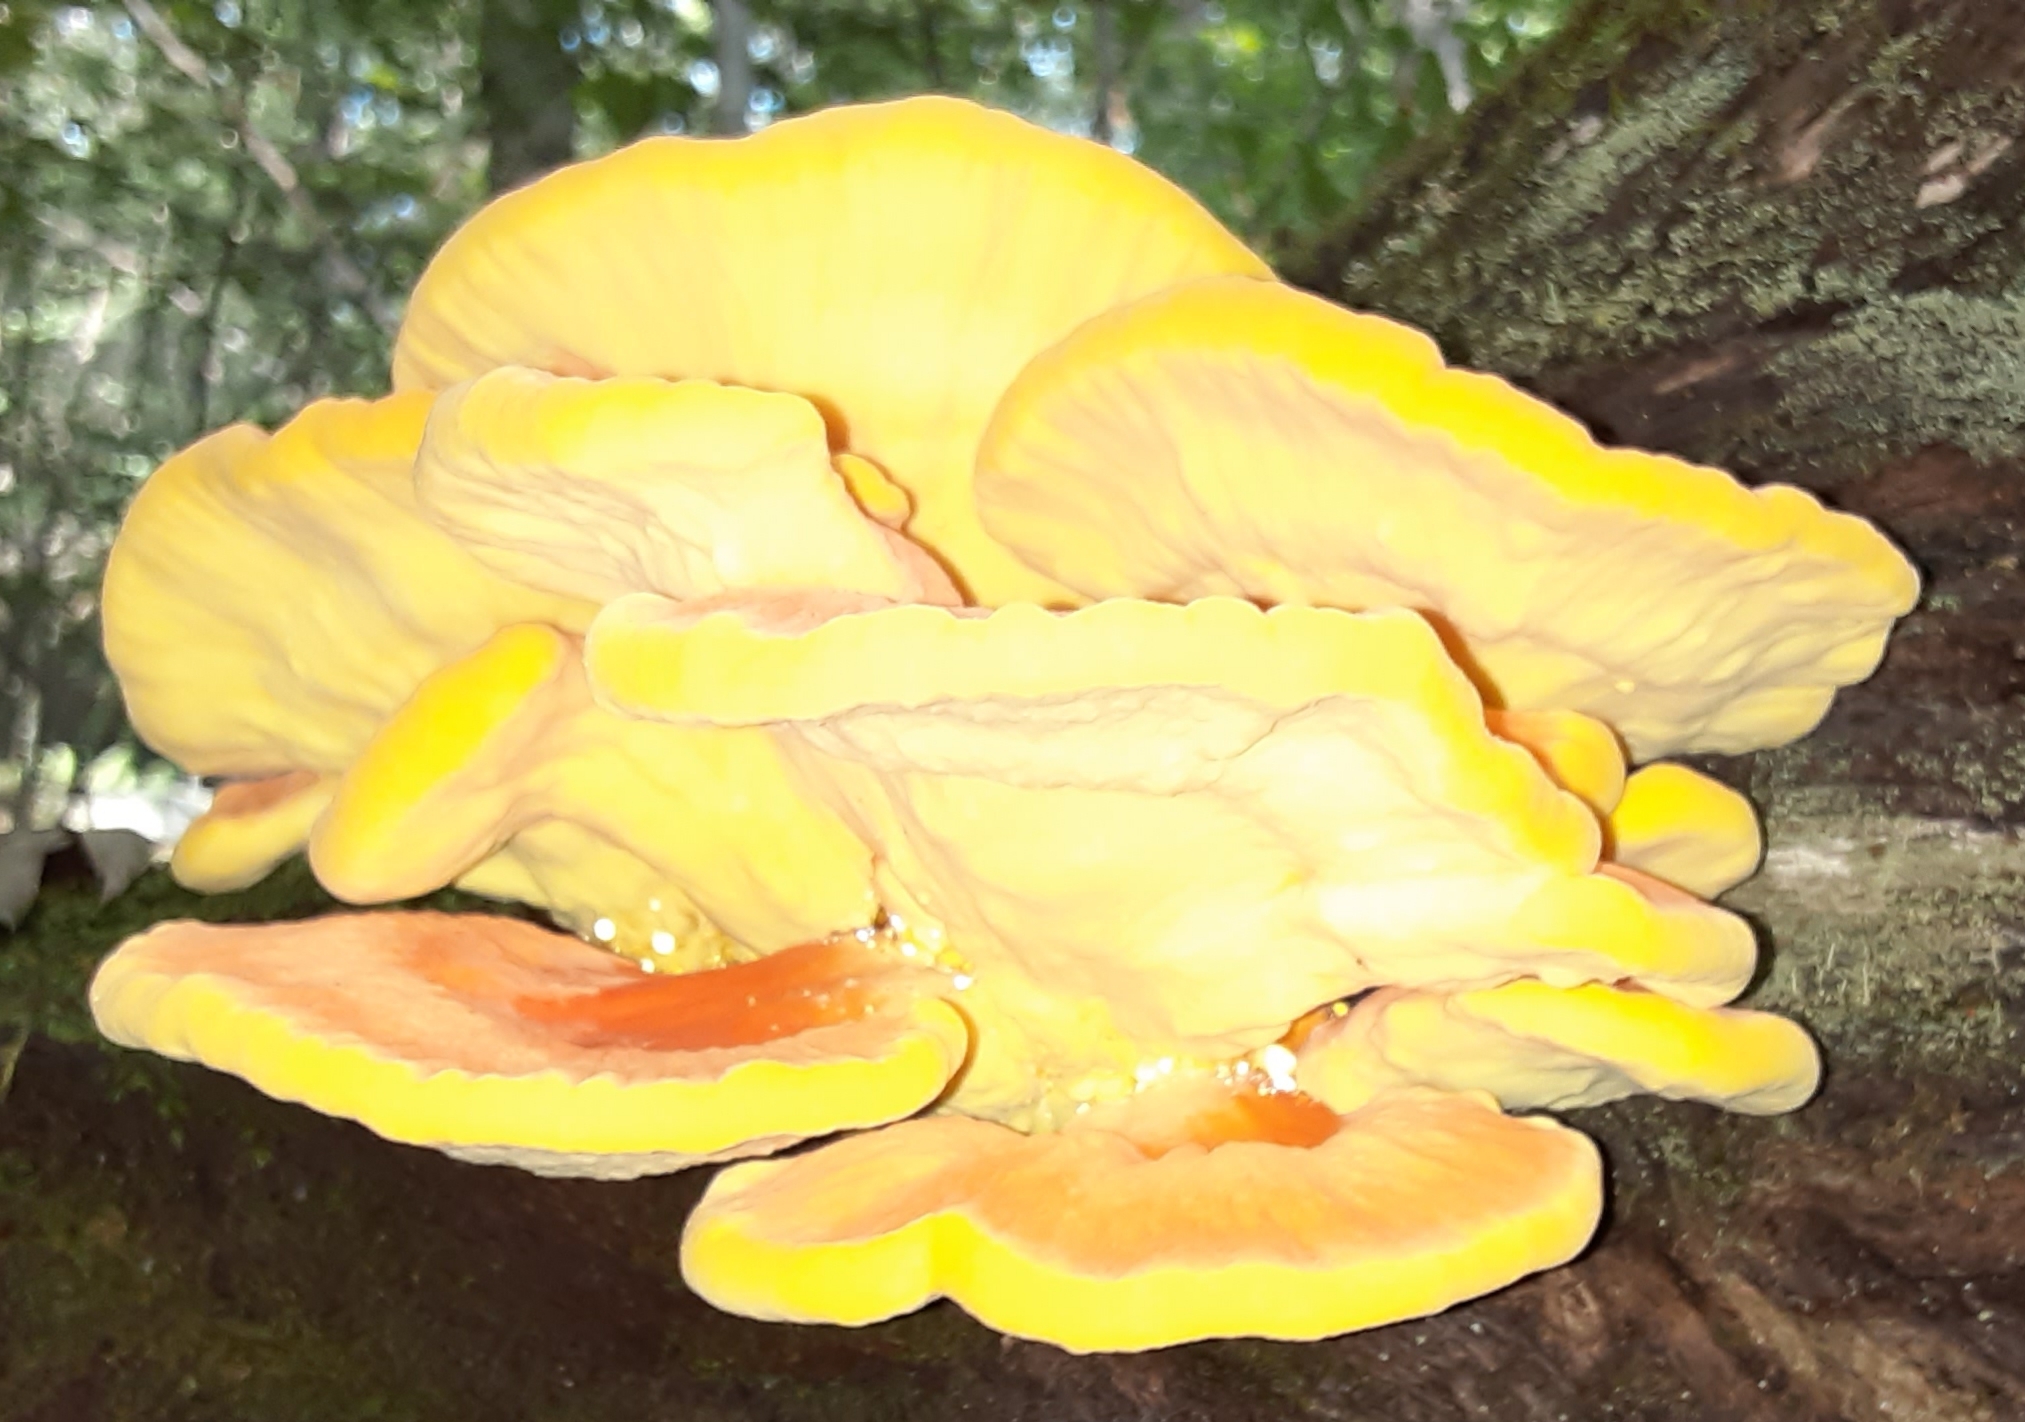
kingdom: Fungi
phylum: Basidiomycota
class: Agaricomycetes
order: Polyporales
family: Laetiporaceae
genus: Laetiporus
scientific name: Laetiporus sulphureus
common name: Chicken of the woods
